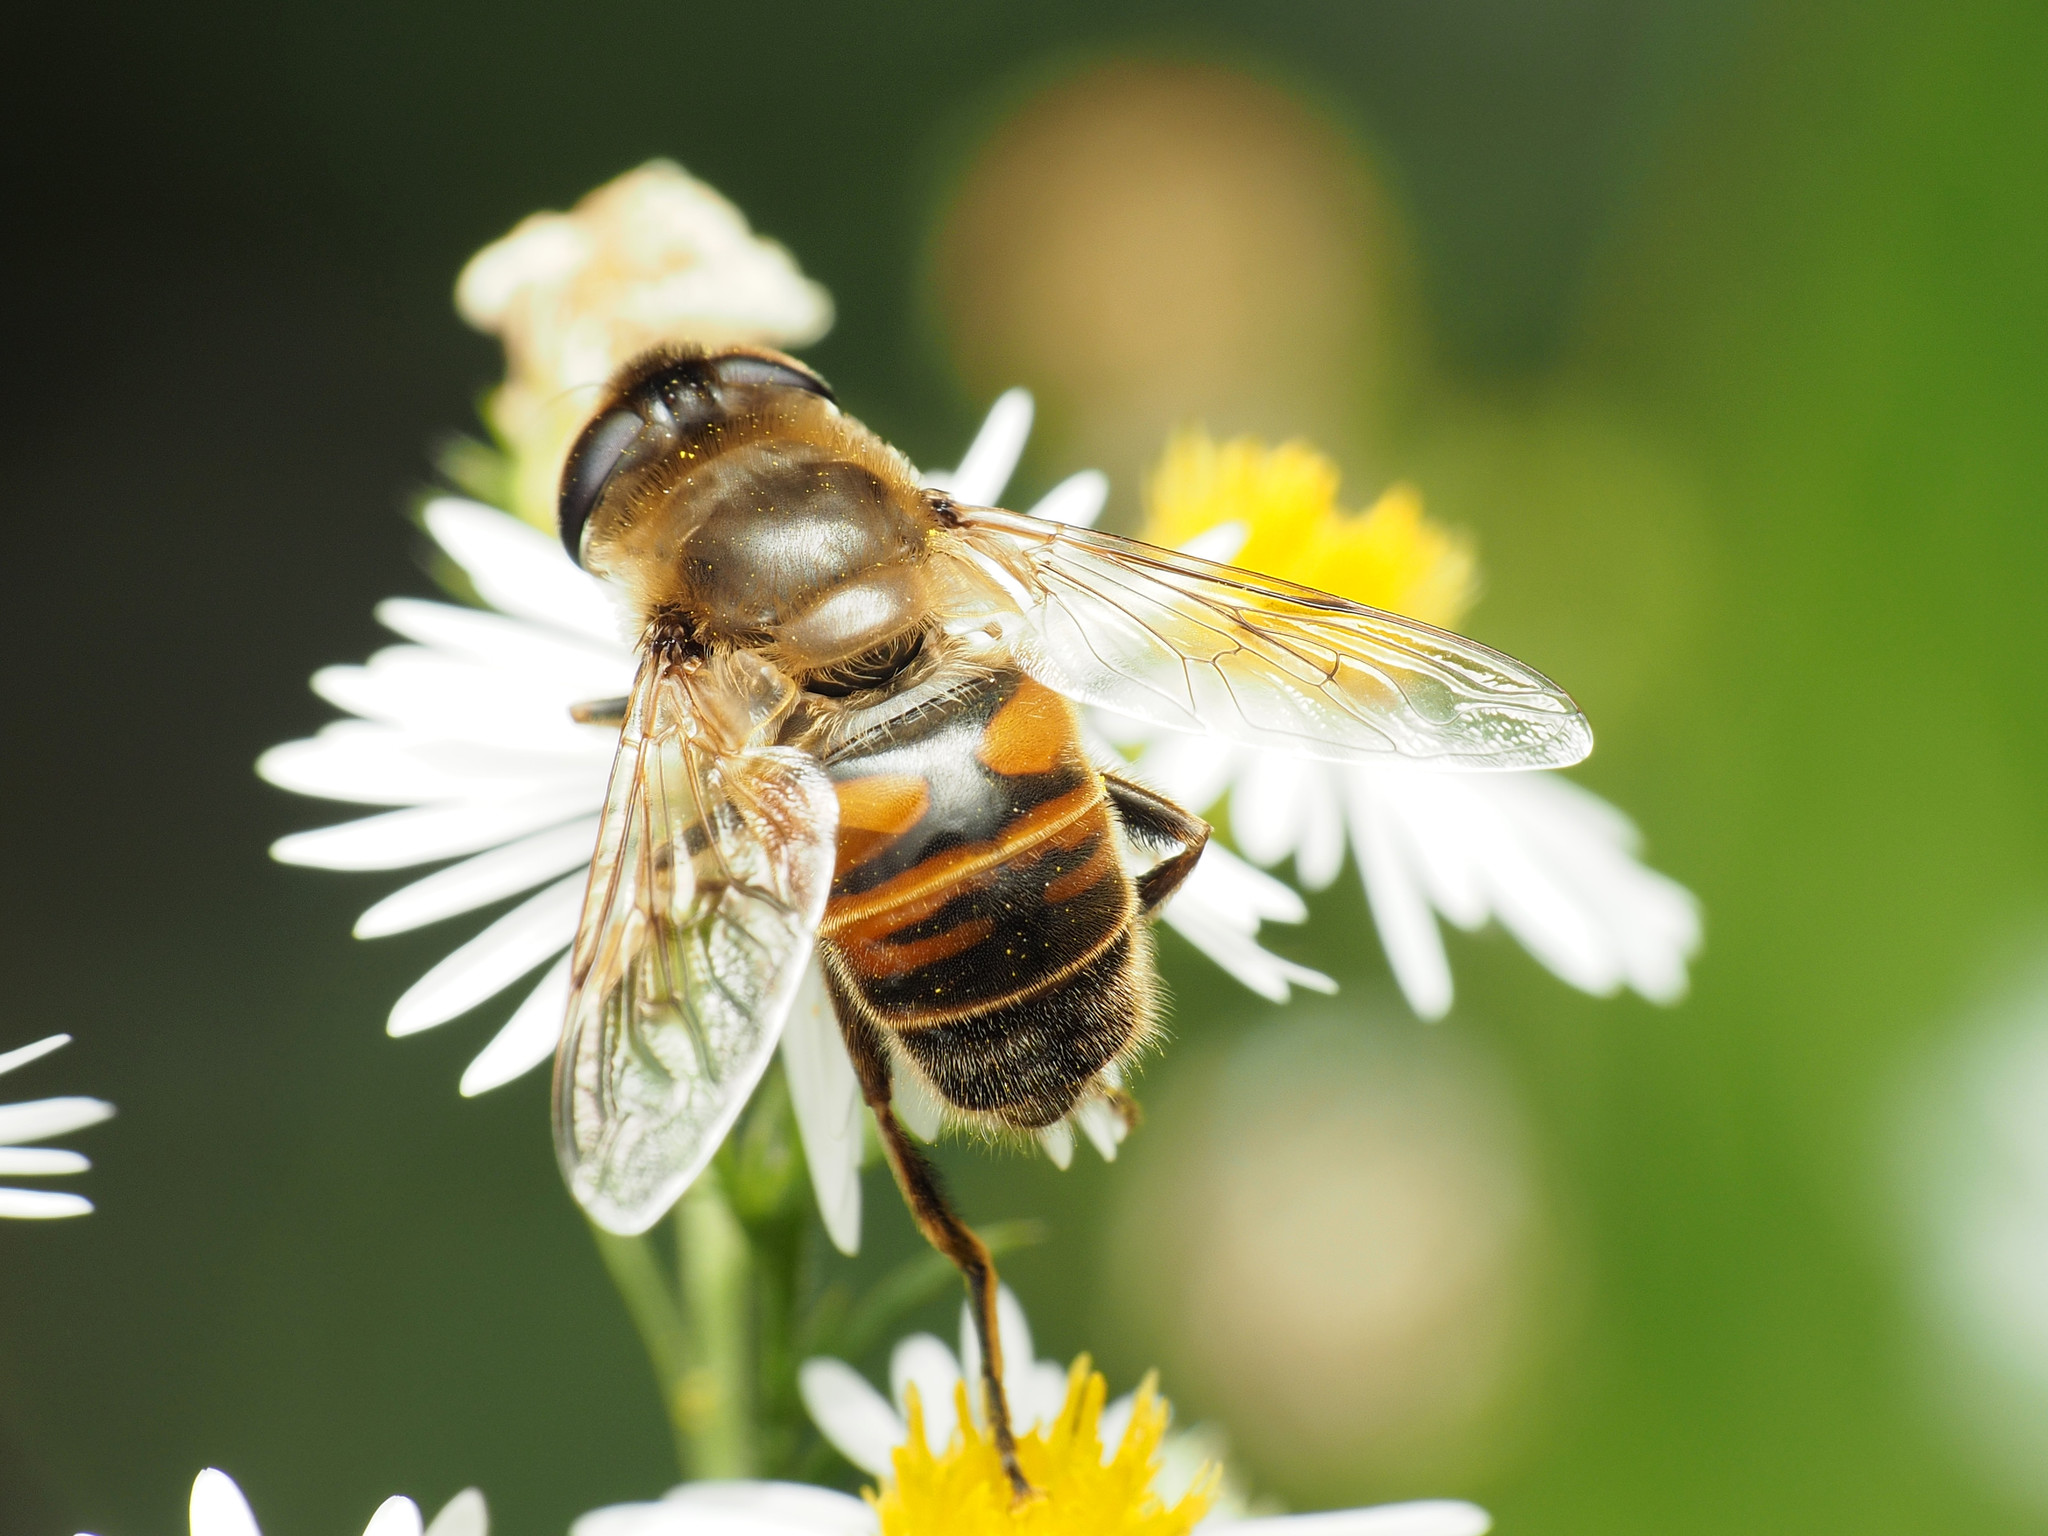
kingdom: Animalia
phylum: Arthropoda
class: Insecta
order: Diptera
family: Syrphidae
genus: Eristalis
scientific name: Eristalis tenax
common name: Drone fly
